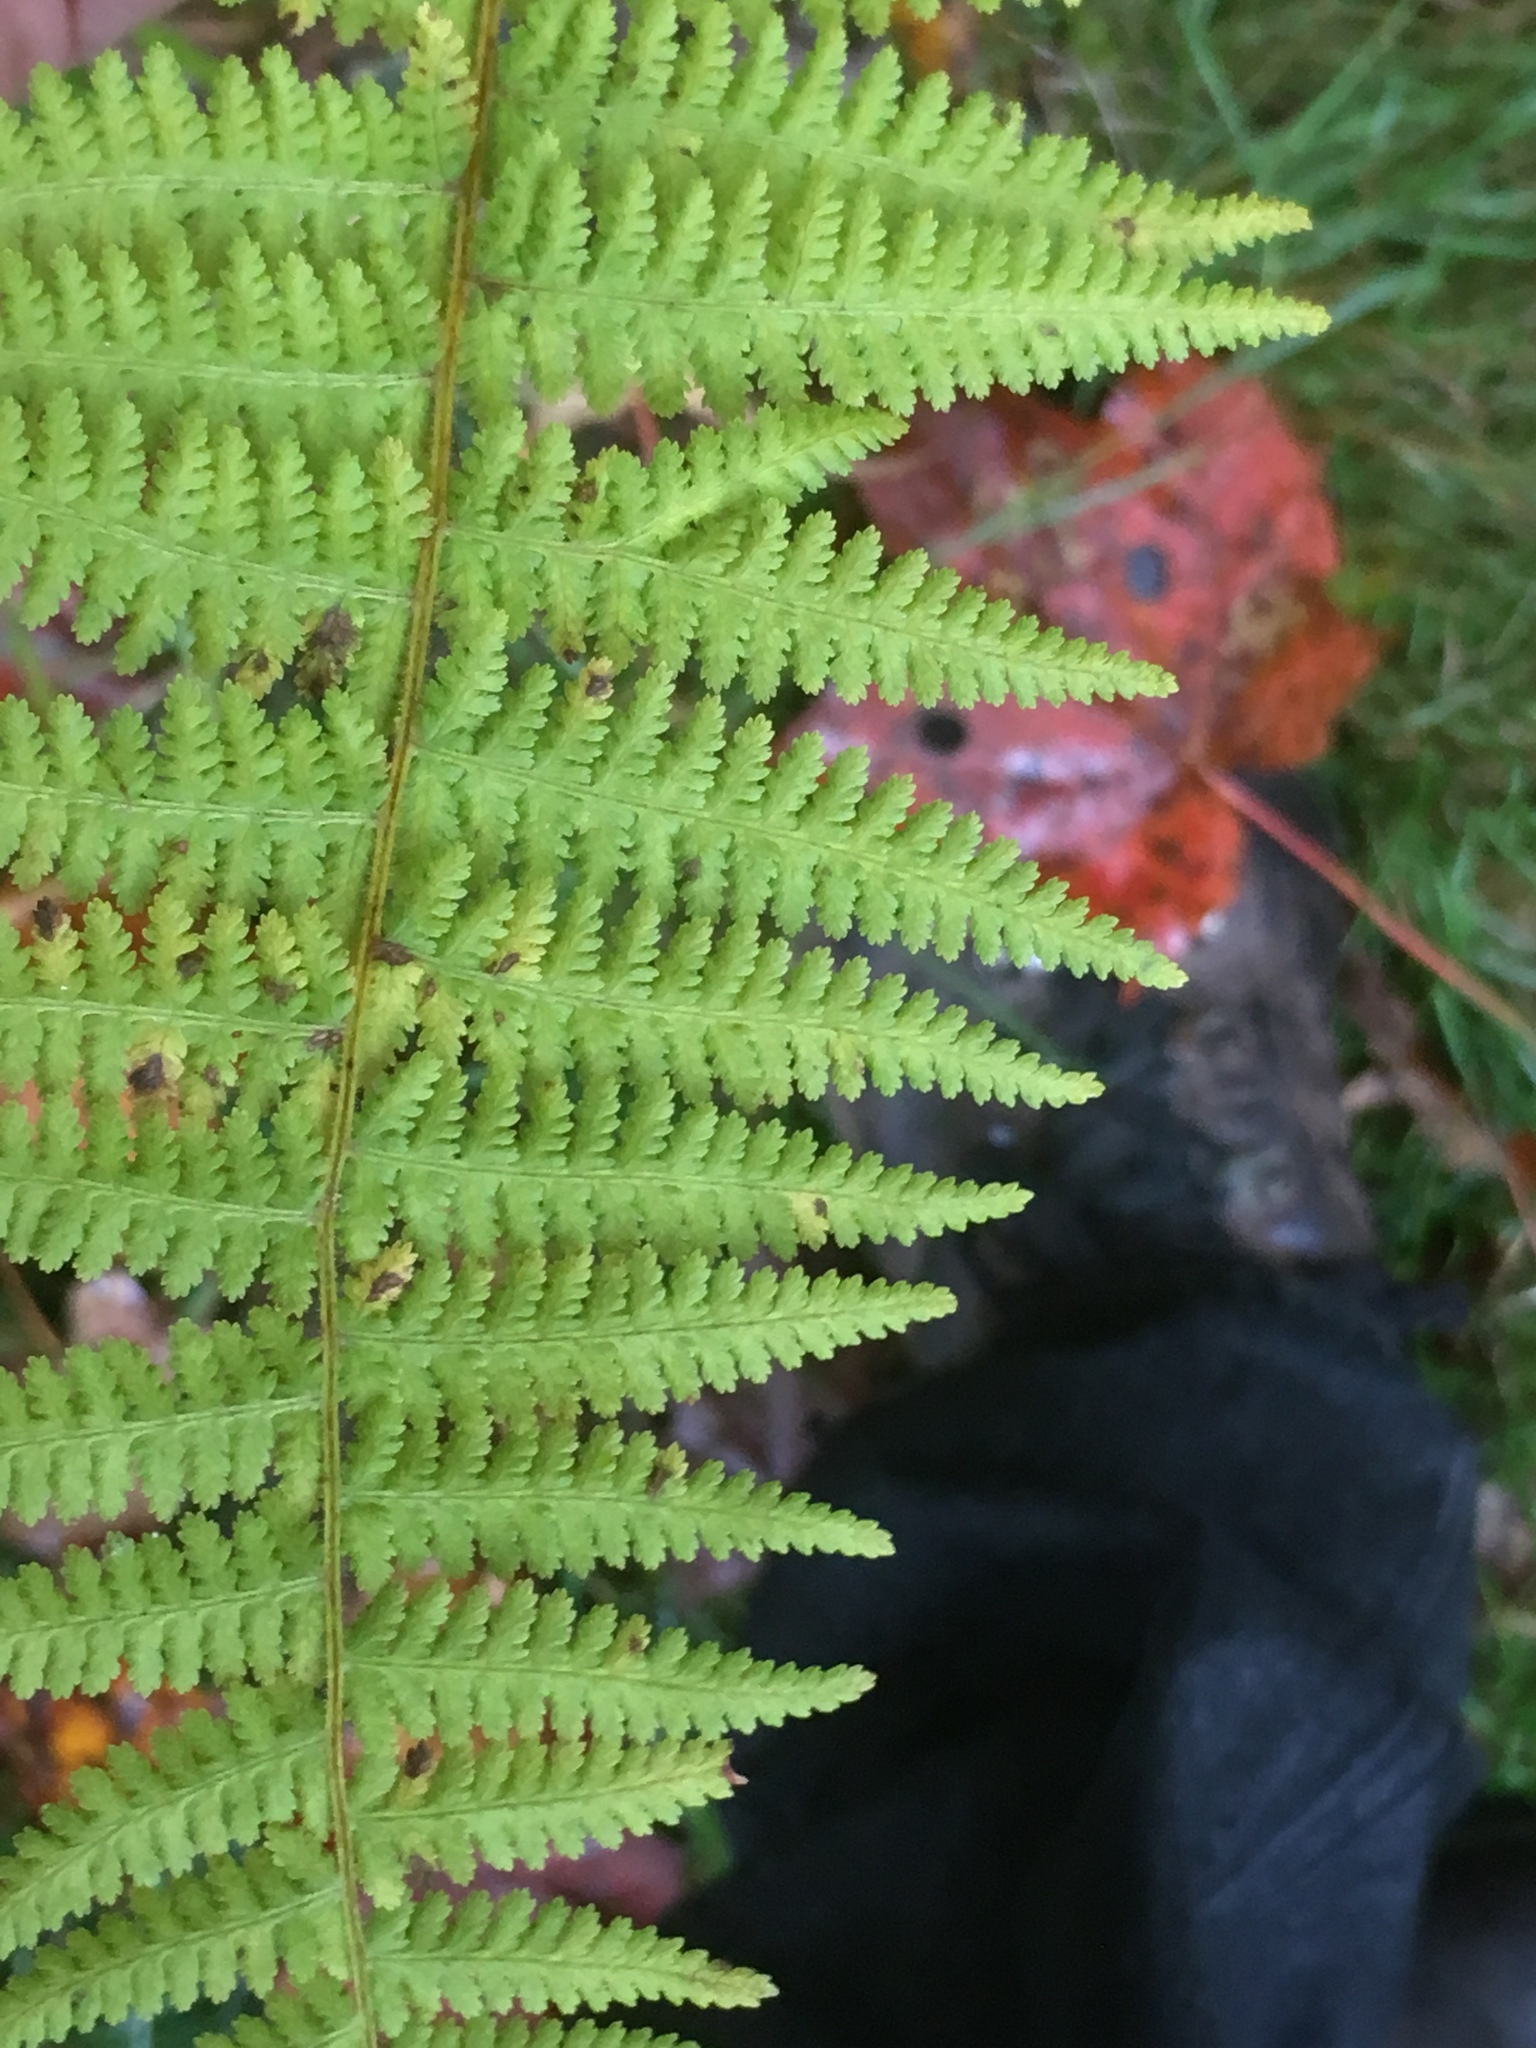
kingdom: Plantae
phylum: Tracheophyta
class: Polypodiopsida
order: Polypodiales
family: Dennstaedtiaceae
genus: Sitobolium
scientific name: Sitobolium punctilobum
